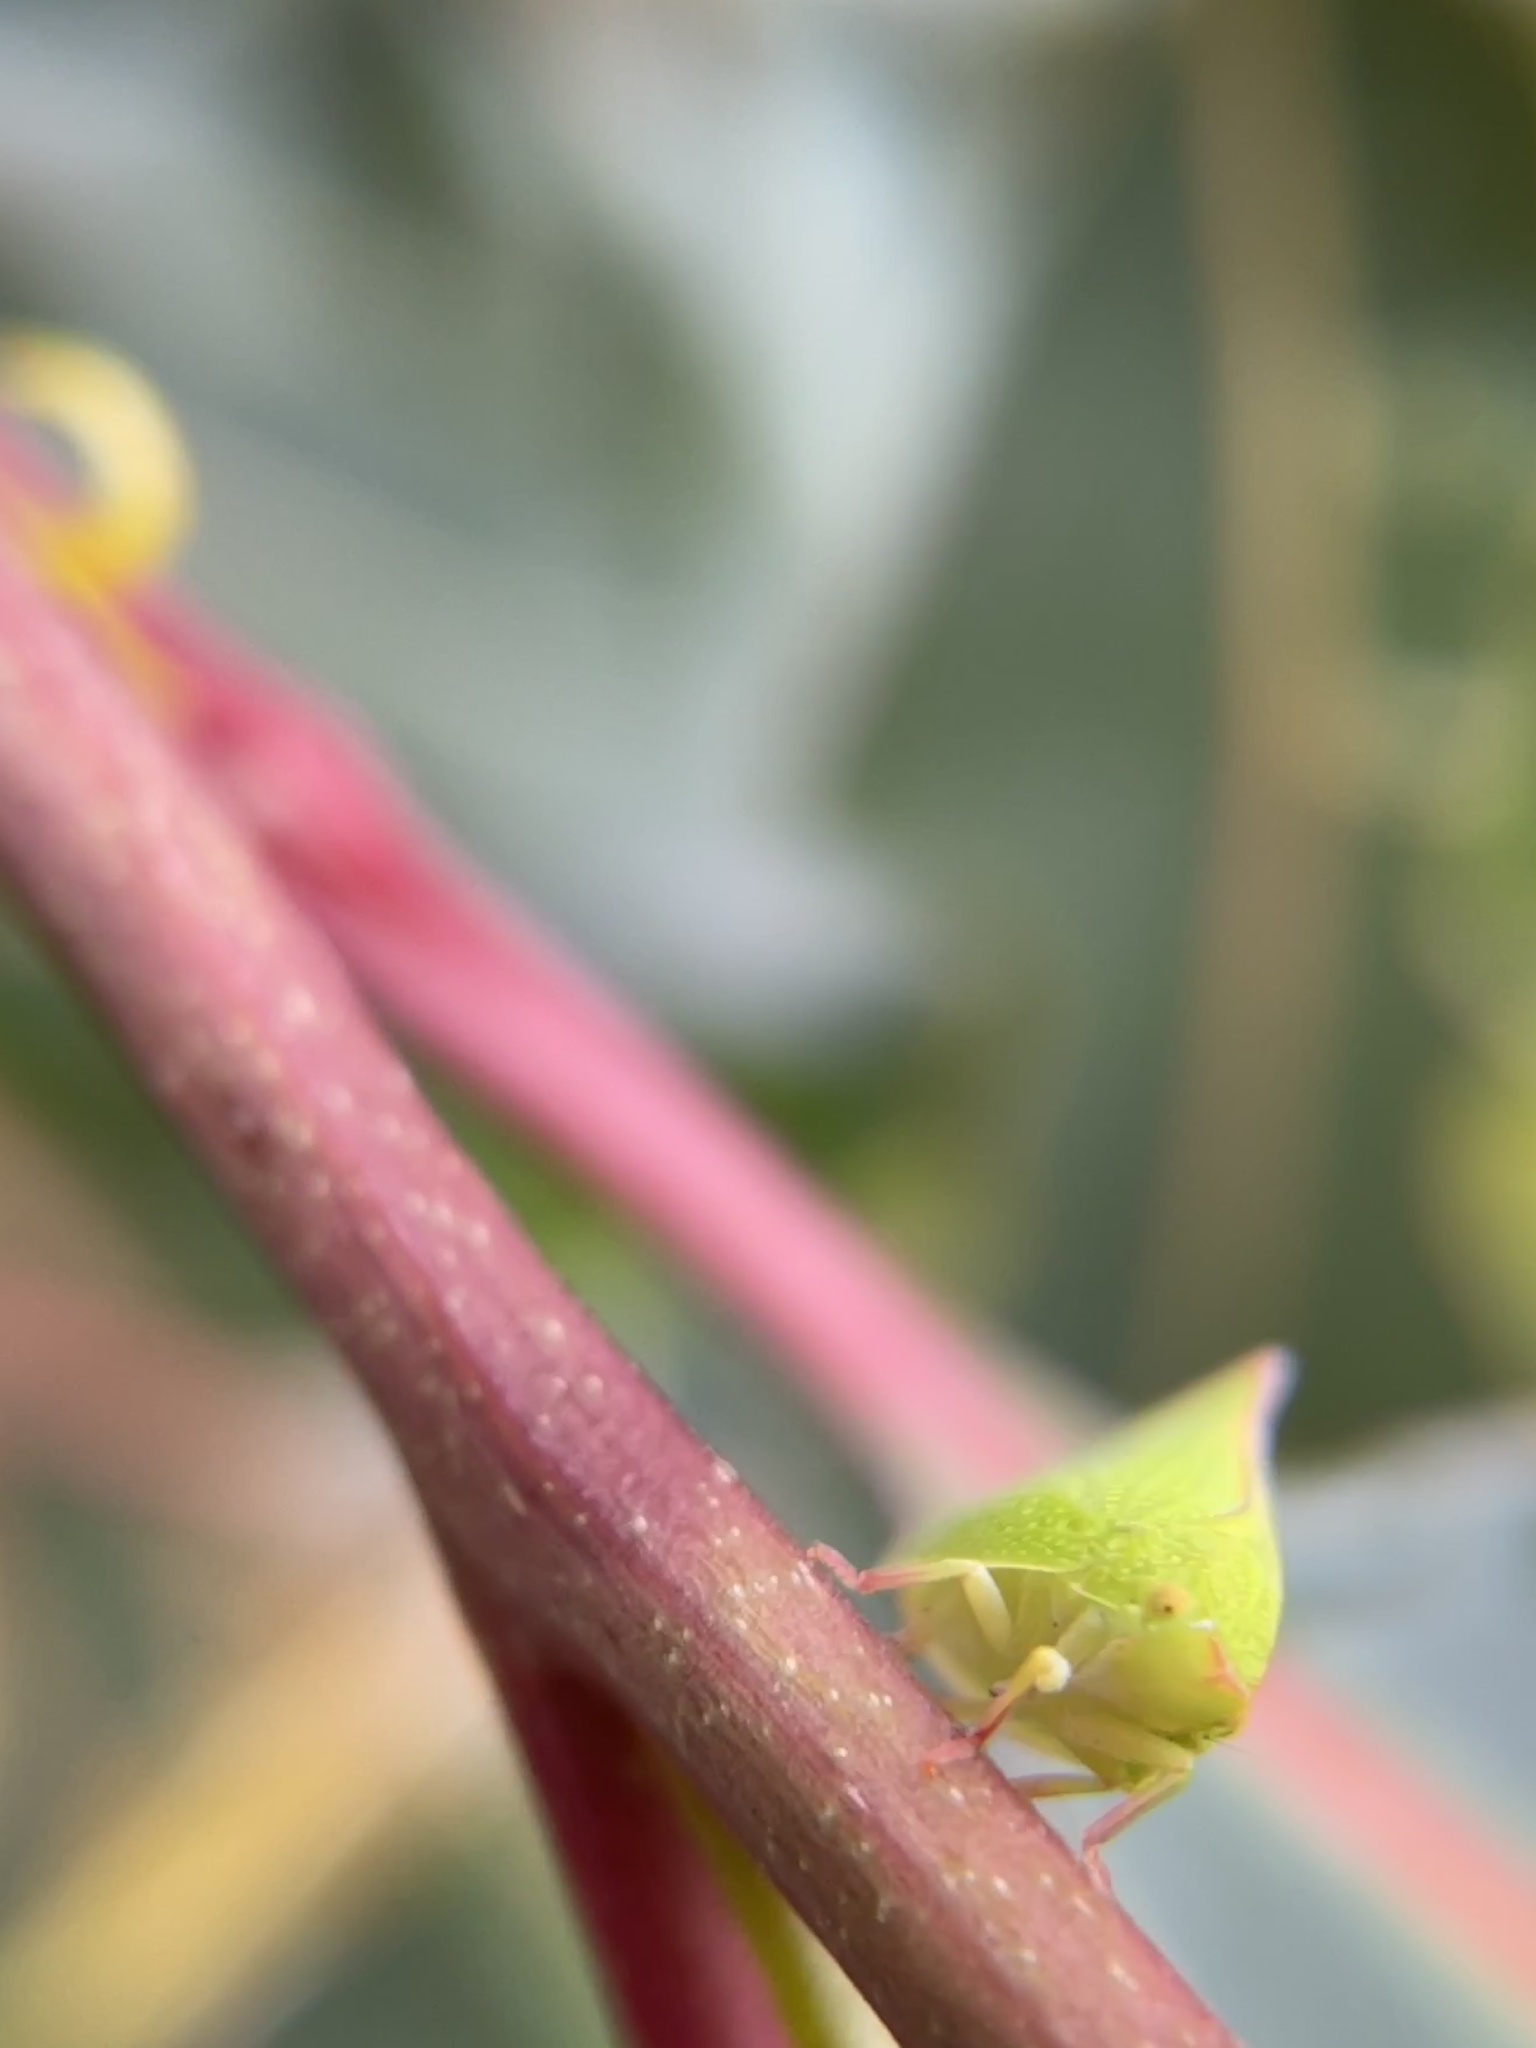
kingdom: Animalia
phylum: Arthropoda
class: Insecta
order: Hemiptera
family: Flatidae
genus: Siphanta
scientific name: Siphanta
